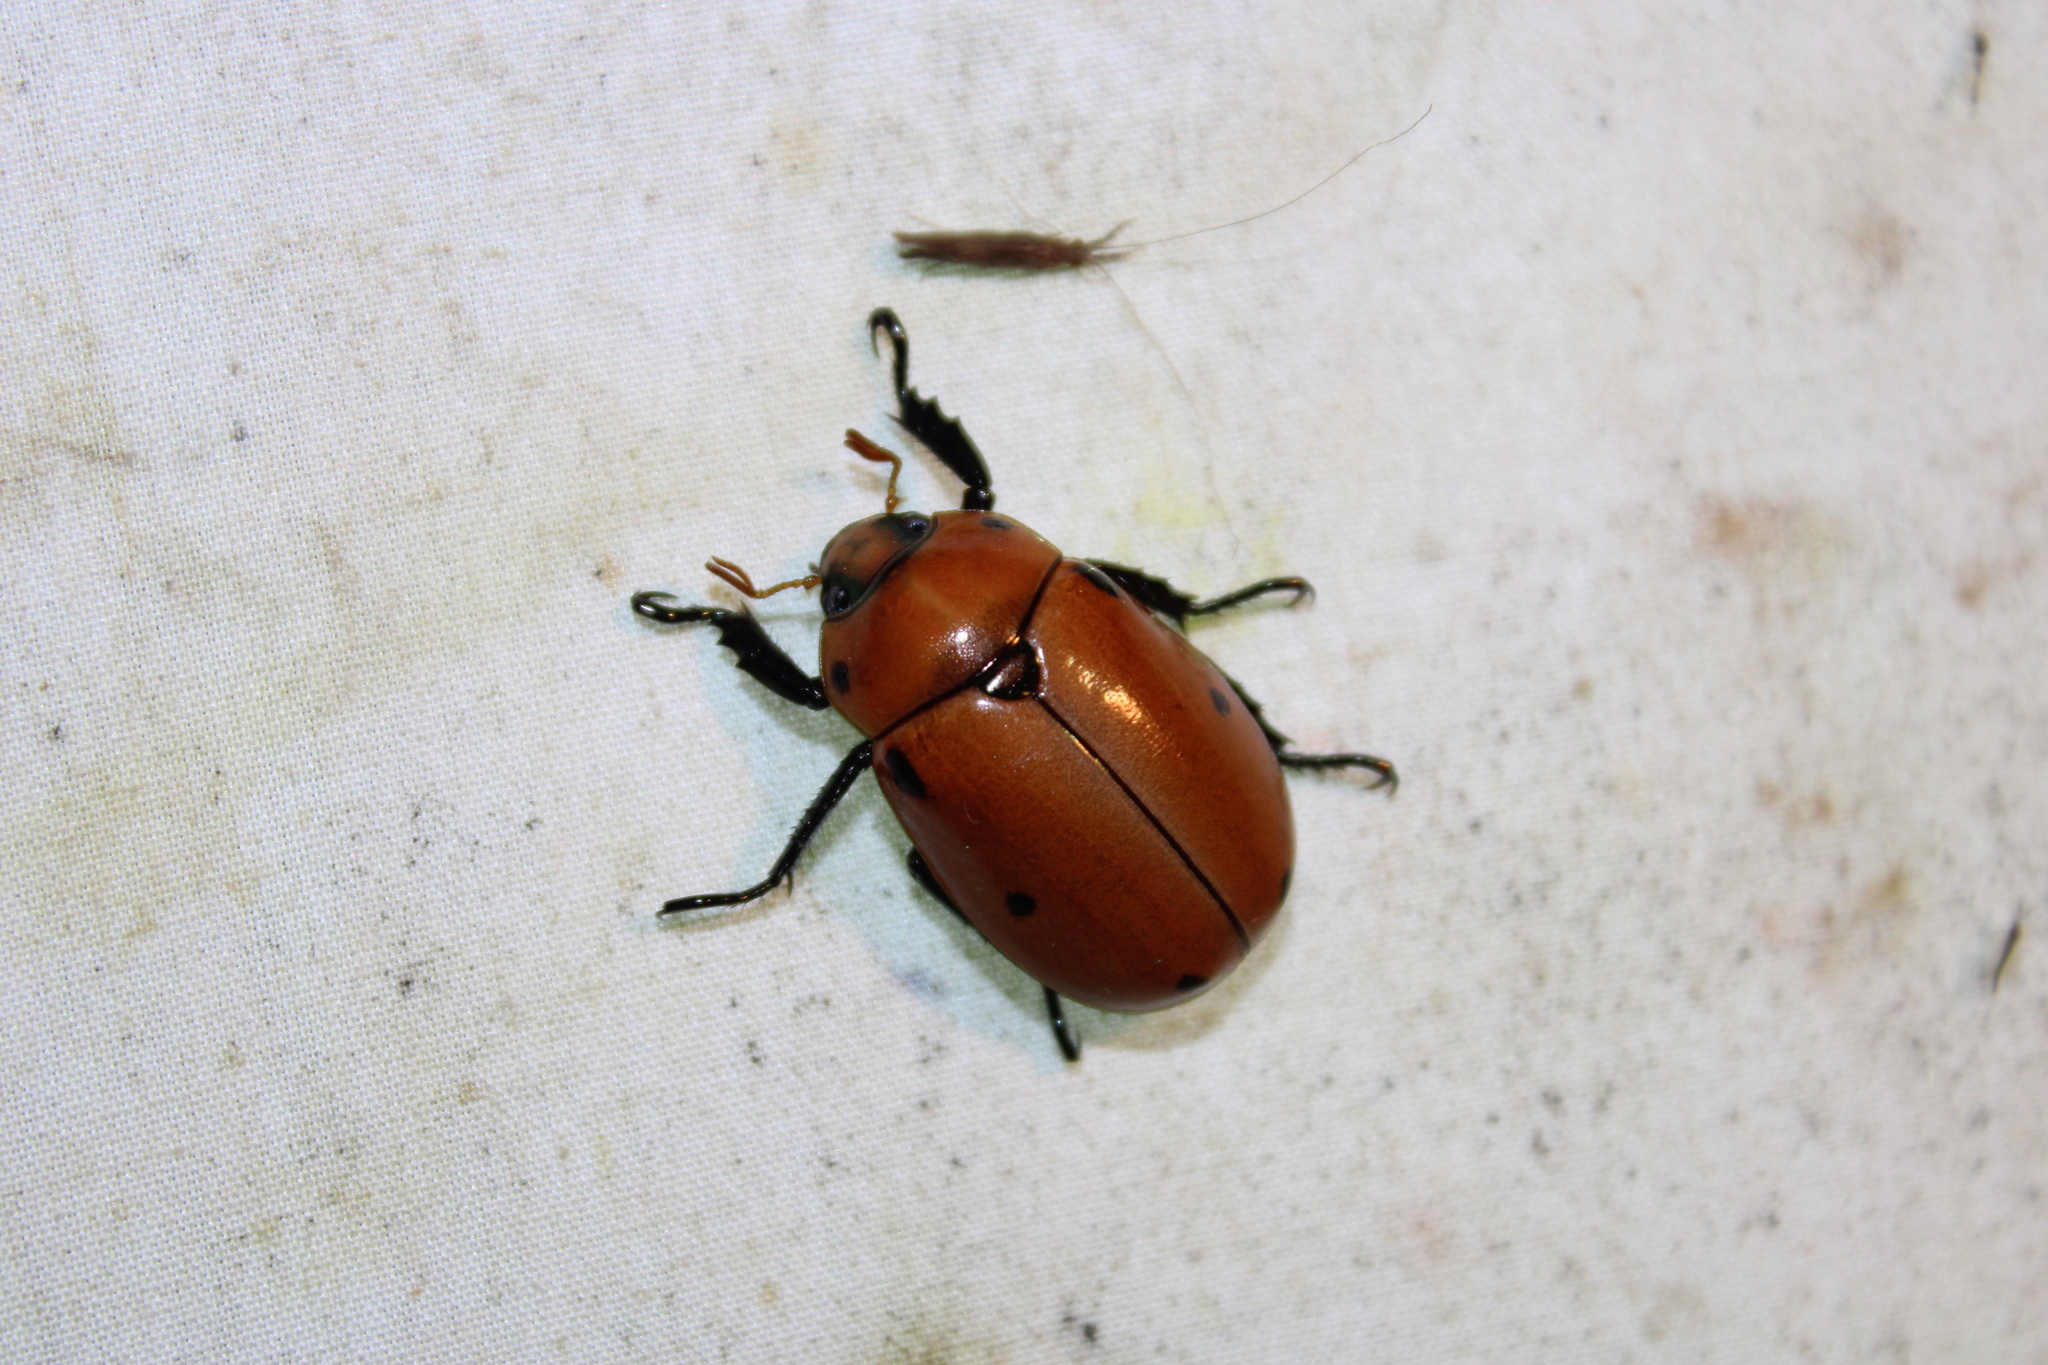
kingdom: Animalia
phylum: Arthropoda
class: Insecta
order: Coleoptera
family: Scarabaeidae
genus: Pelidnota
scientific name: Pelidnota punctata
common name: Grapevine beetle
